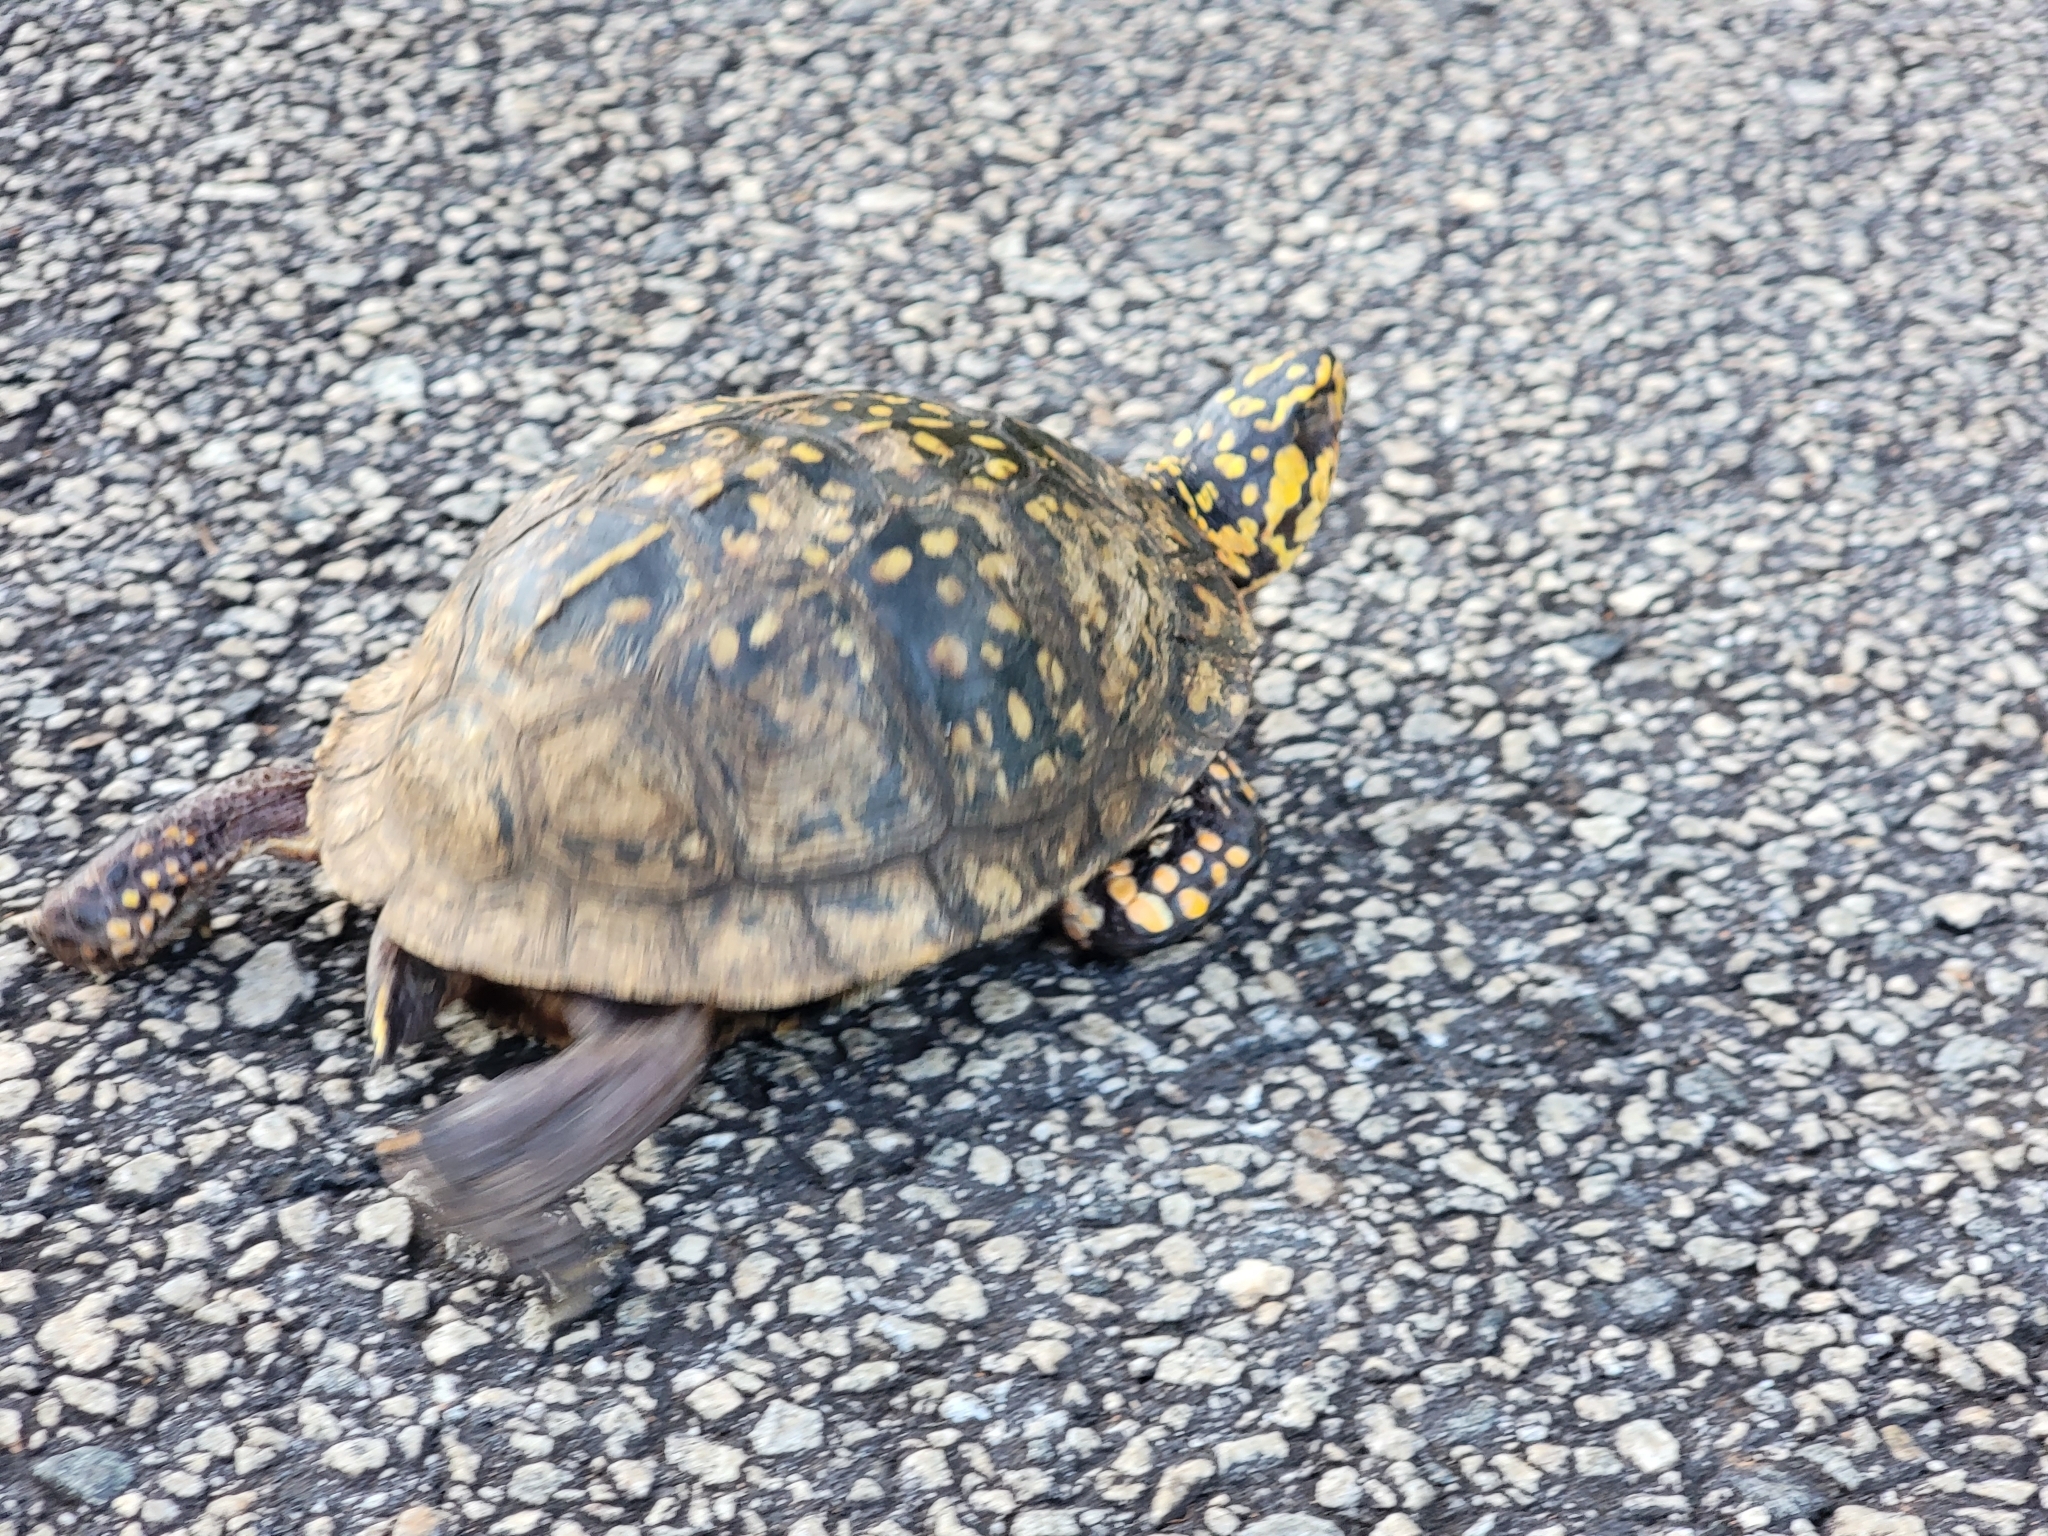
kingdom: Animalia
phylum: Chordata
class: Testudines
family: Emydidae
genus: Terrapene
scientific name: Terrapene carolina
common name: Common box turtle
